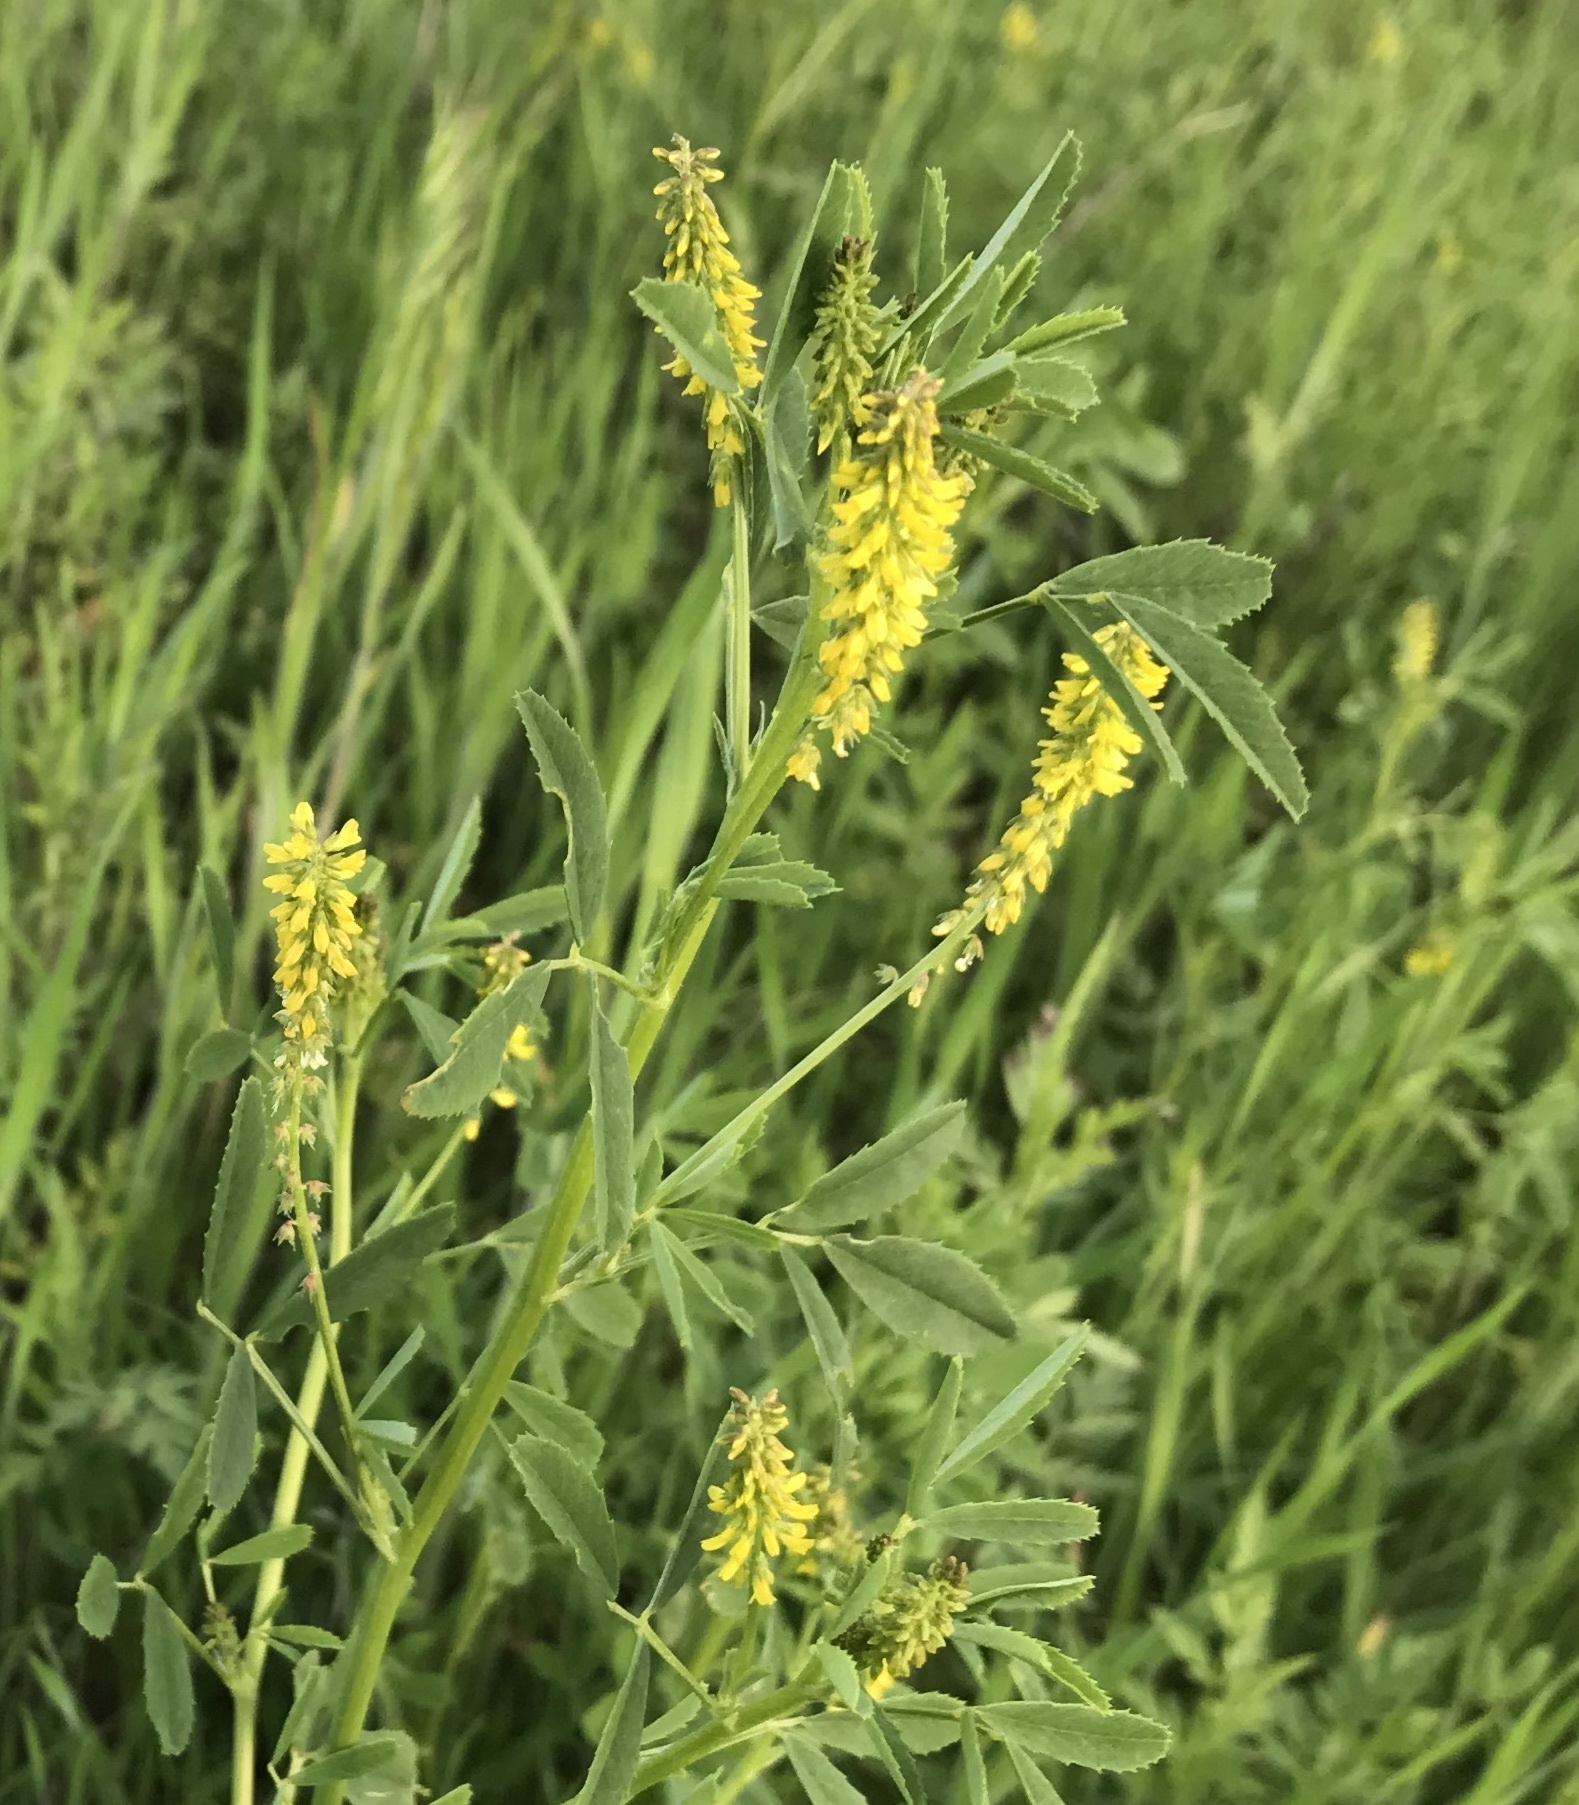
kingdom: Plantae
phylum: Tracheophyta
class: Magnoliopsida
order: Fabales
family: Fabaceae
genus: Melilotus
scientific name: Melilotus indicus
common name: Small melilot
